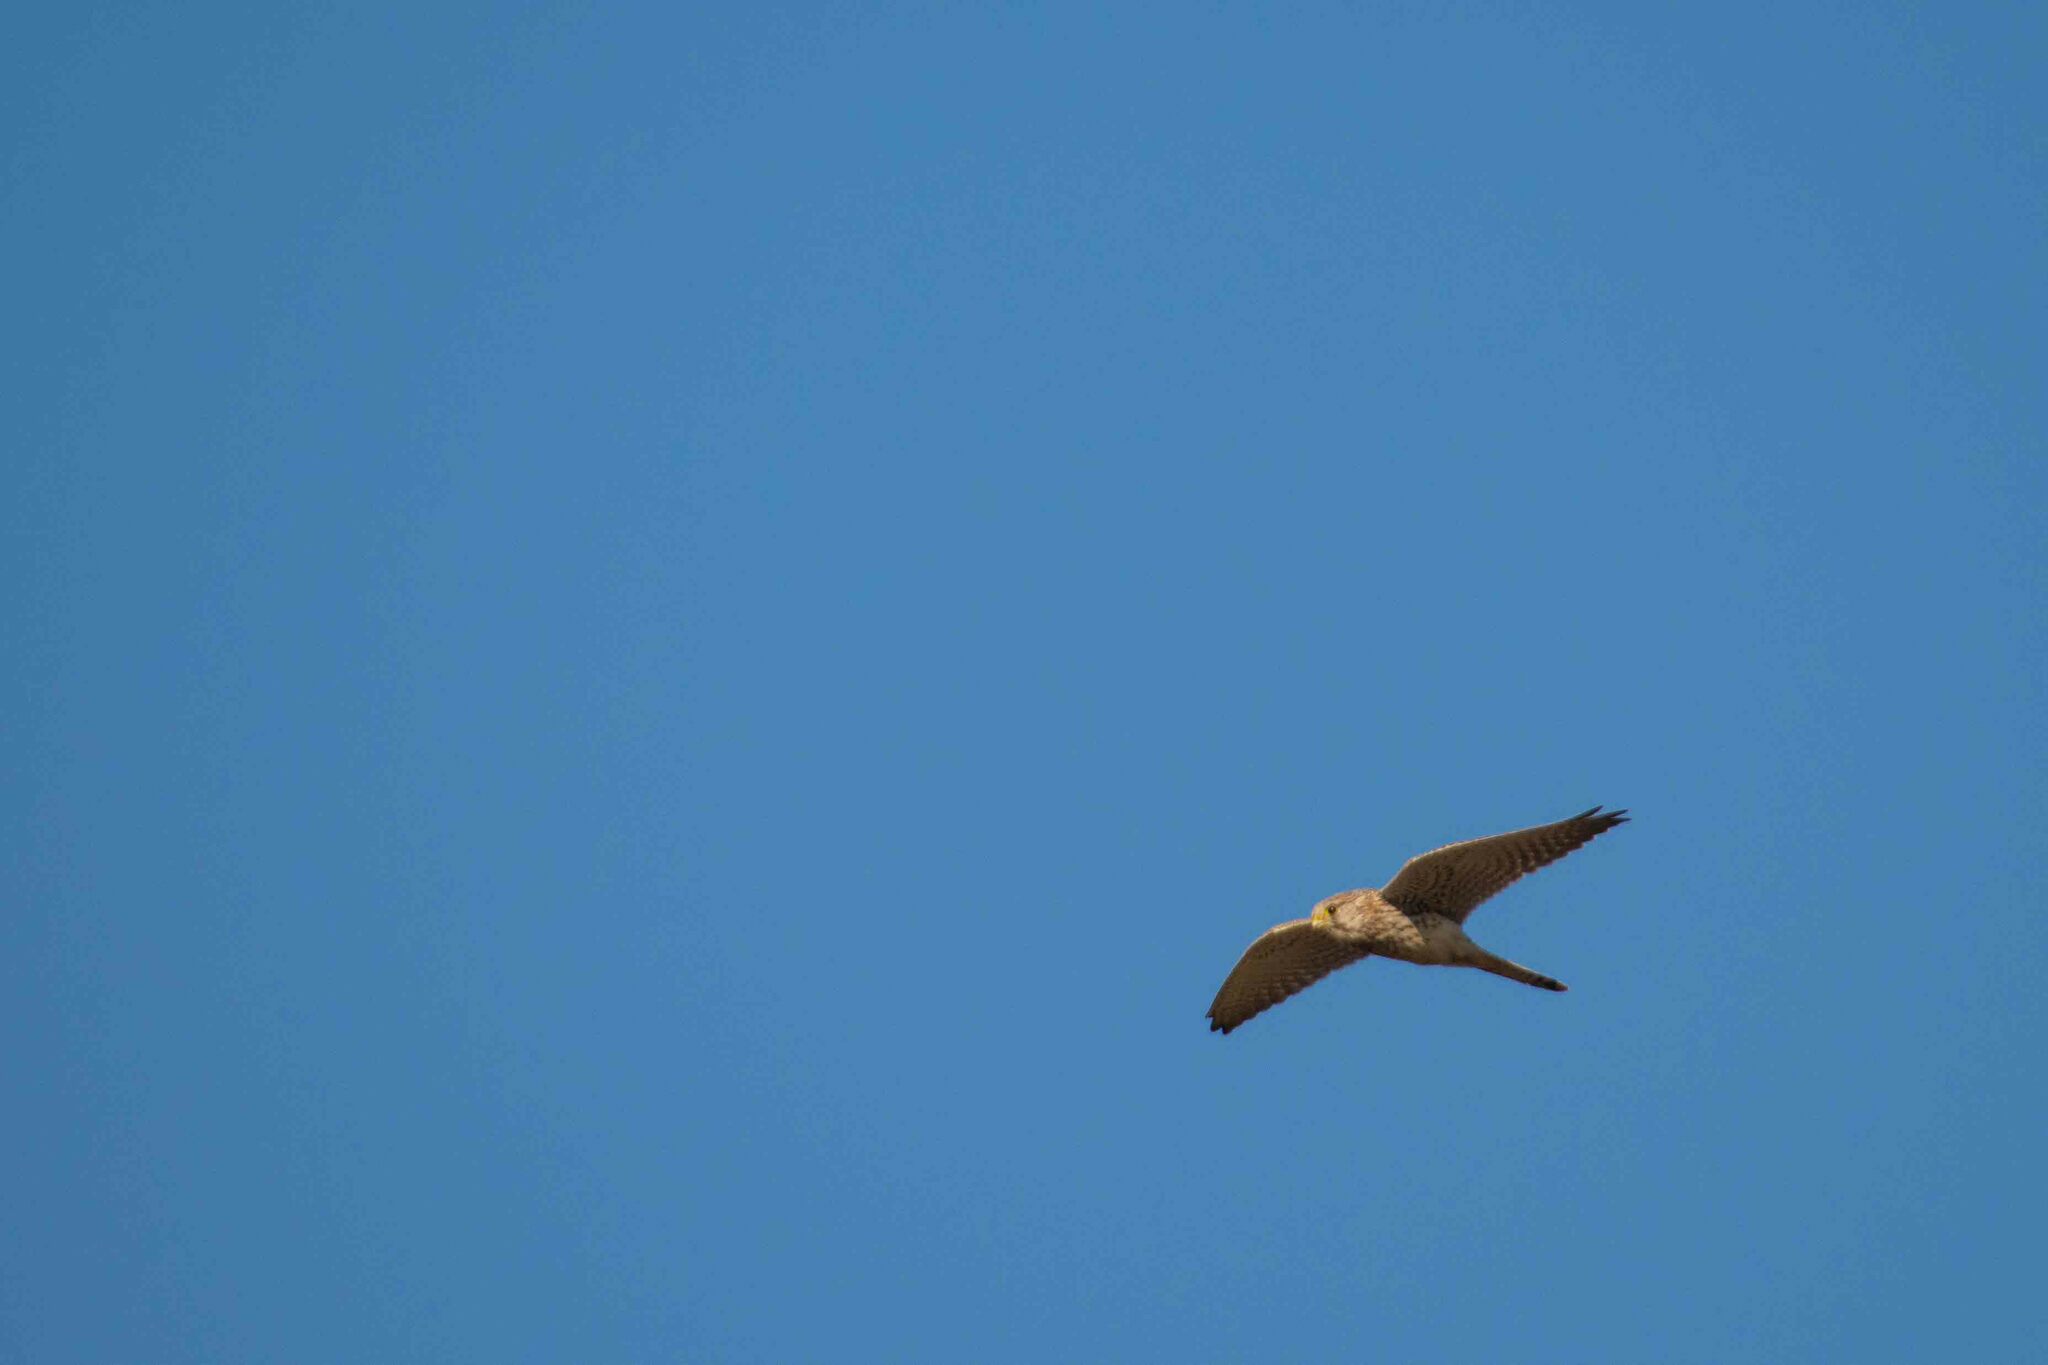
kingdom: Animalia
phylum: Chordata
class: Aves
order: Falconiformes
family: Falconidae
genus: Falco
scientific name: Falco tinnunculus
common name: Common kestrel
